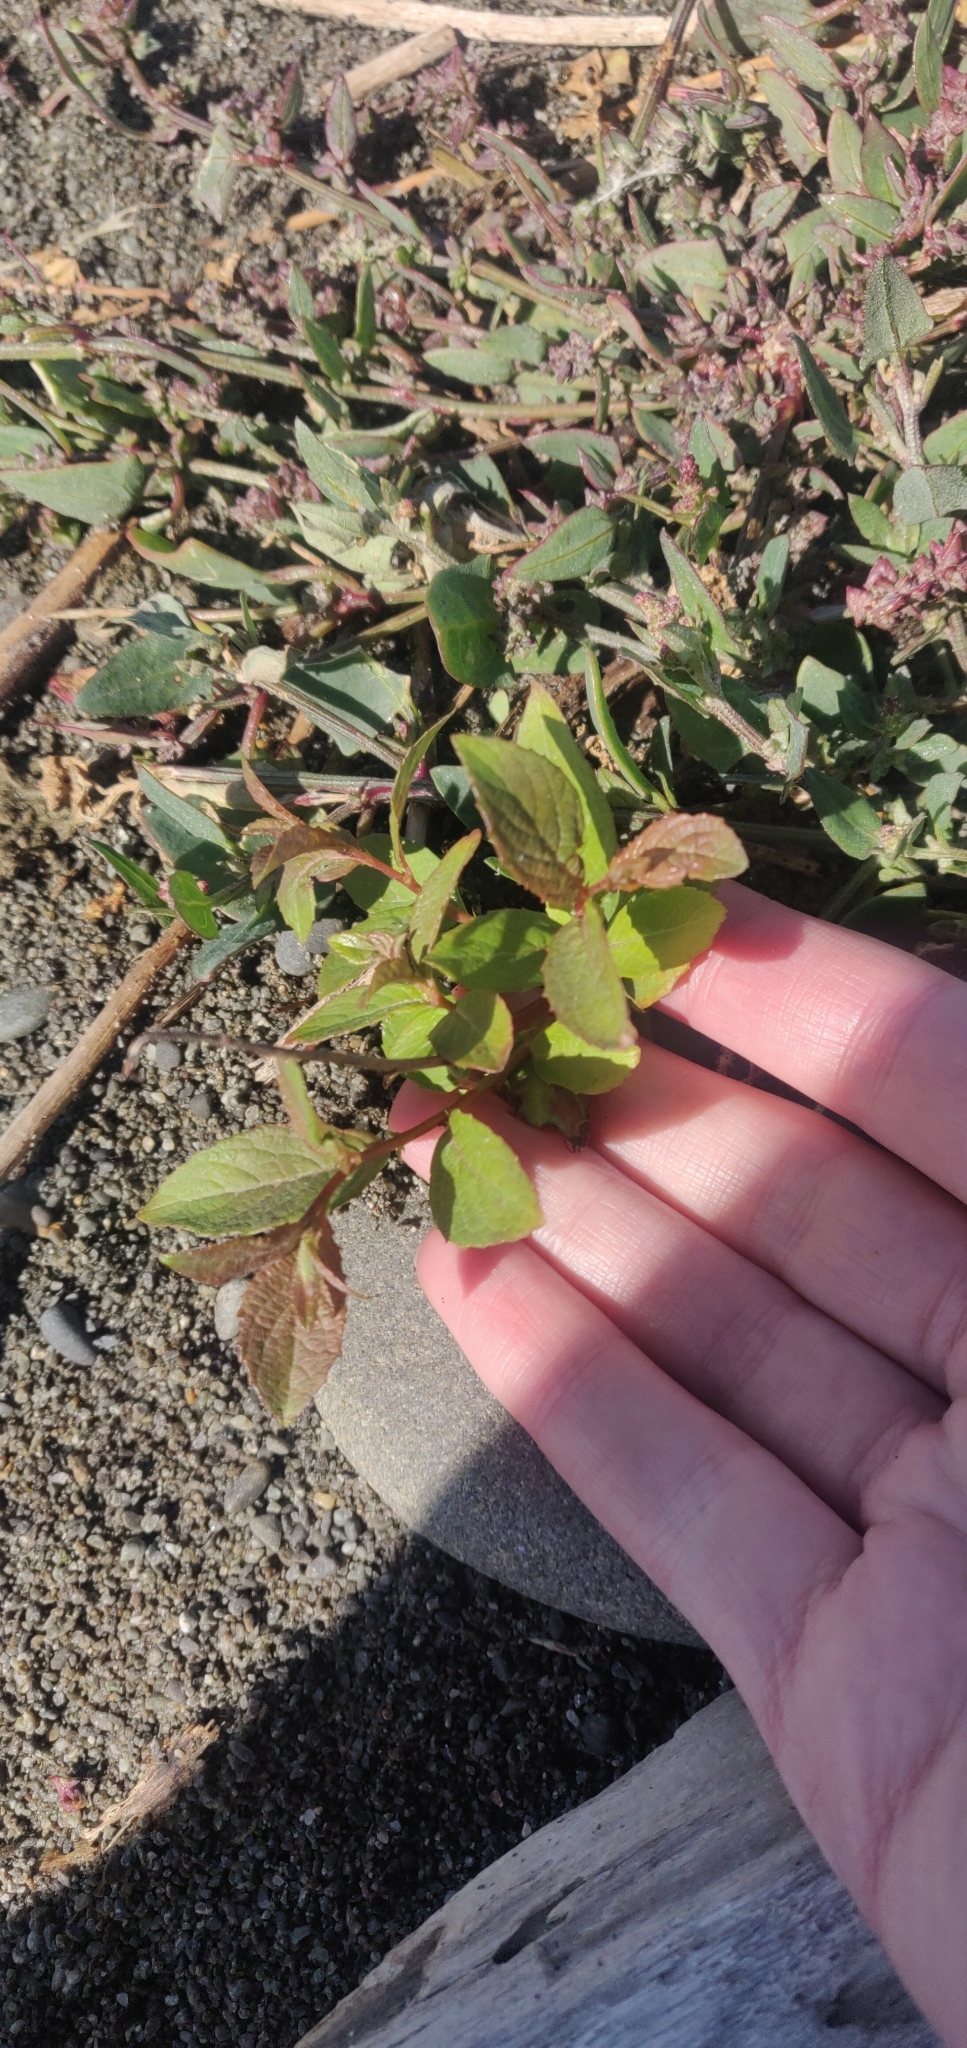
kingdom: Plantae
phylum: Tracheophyta
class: Magnoliopsida
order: Malpighiales
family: Salicaceae
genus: Salix
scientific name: Salix cinerea
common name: Common sallow
